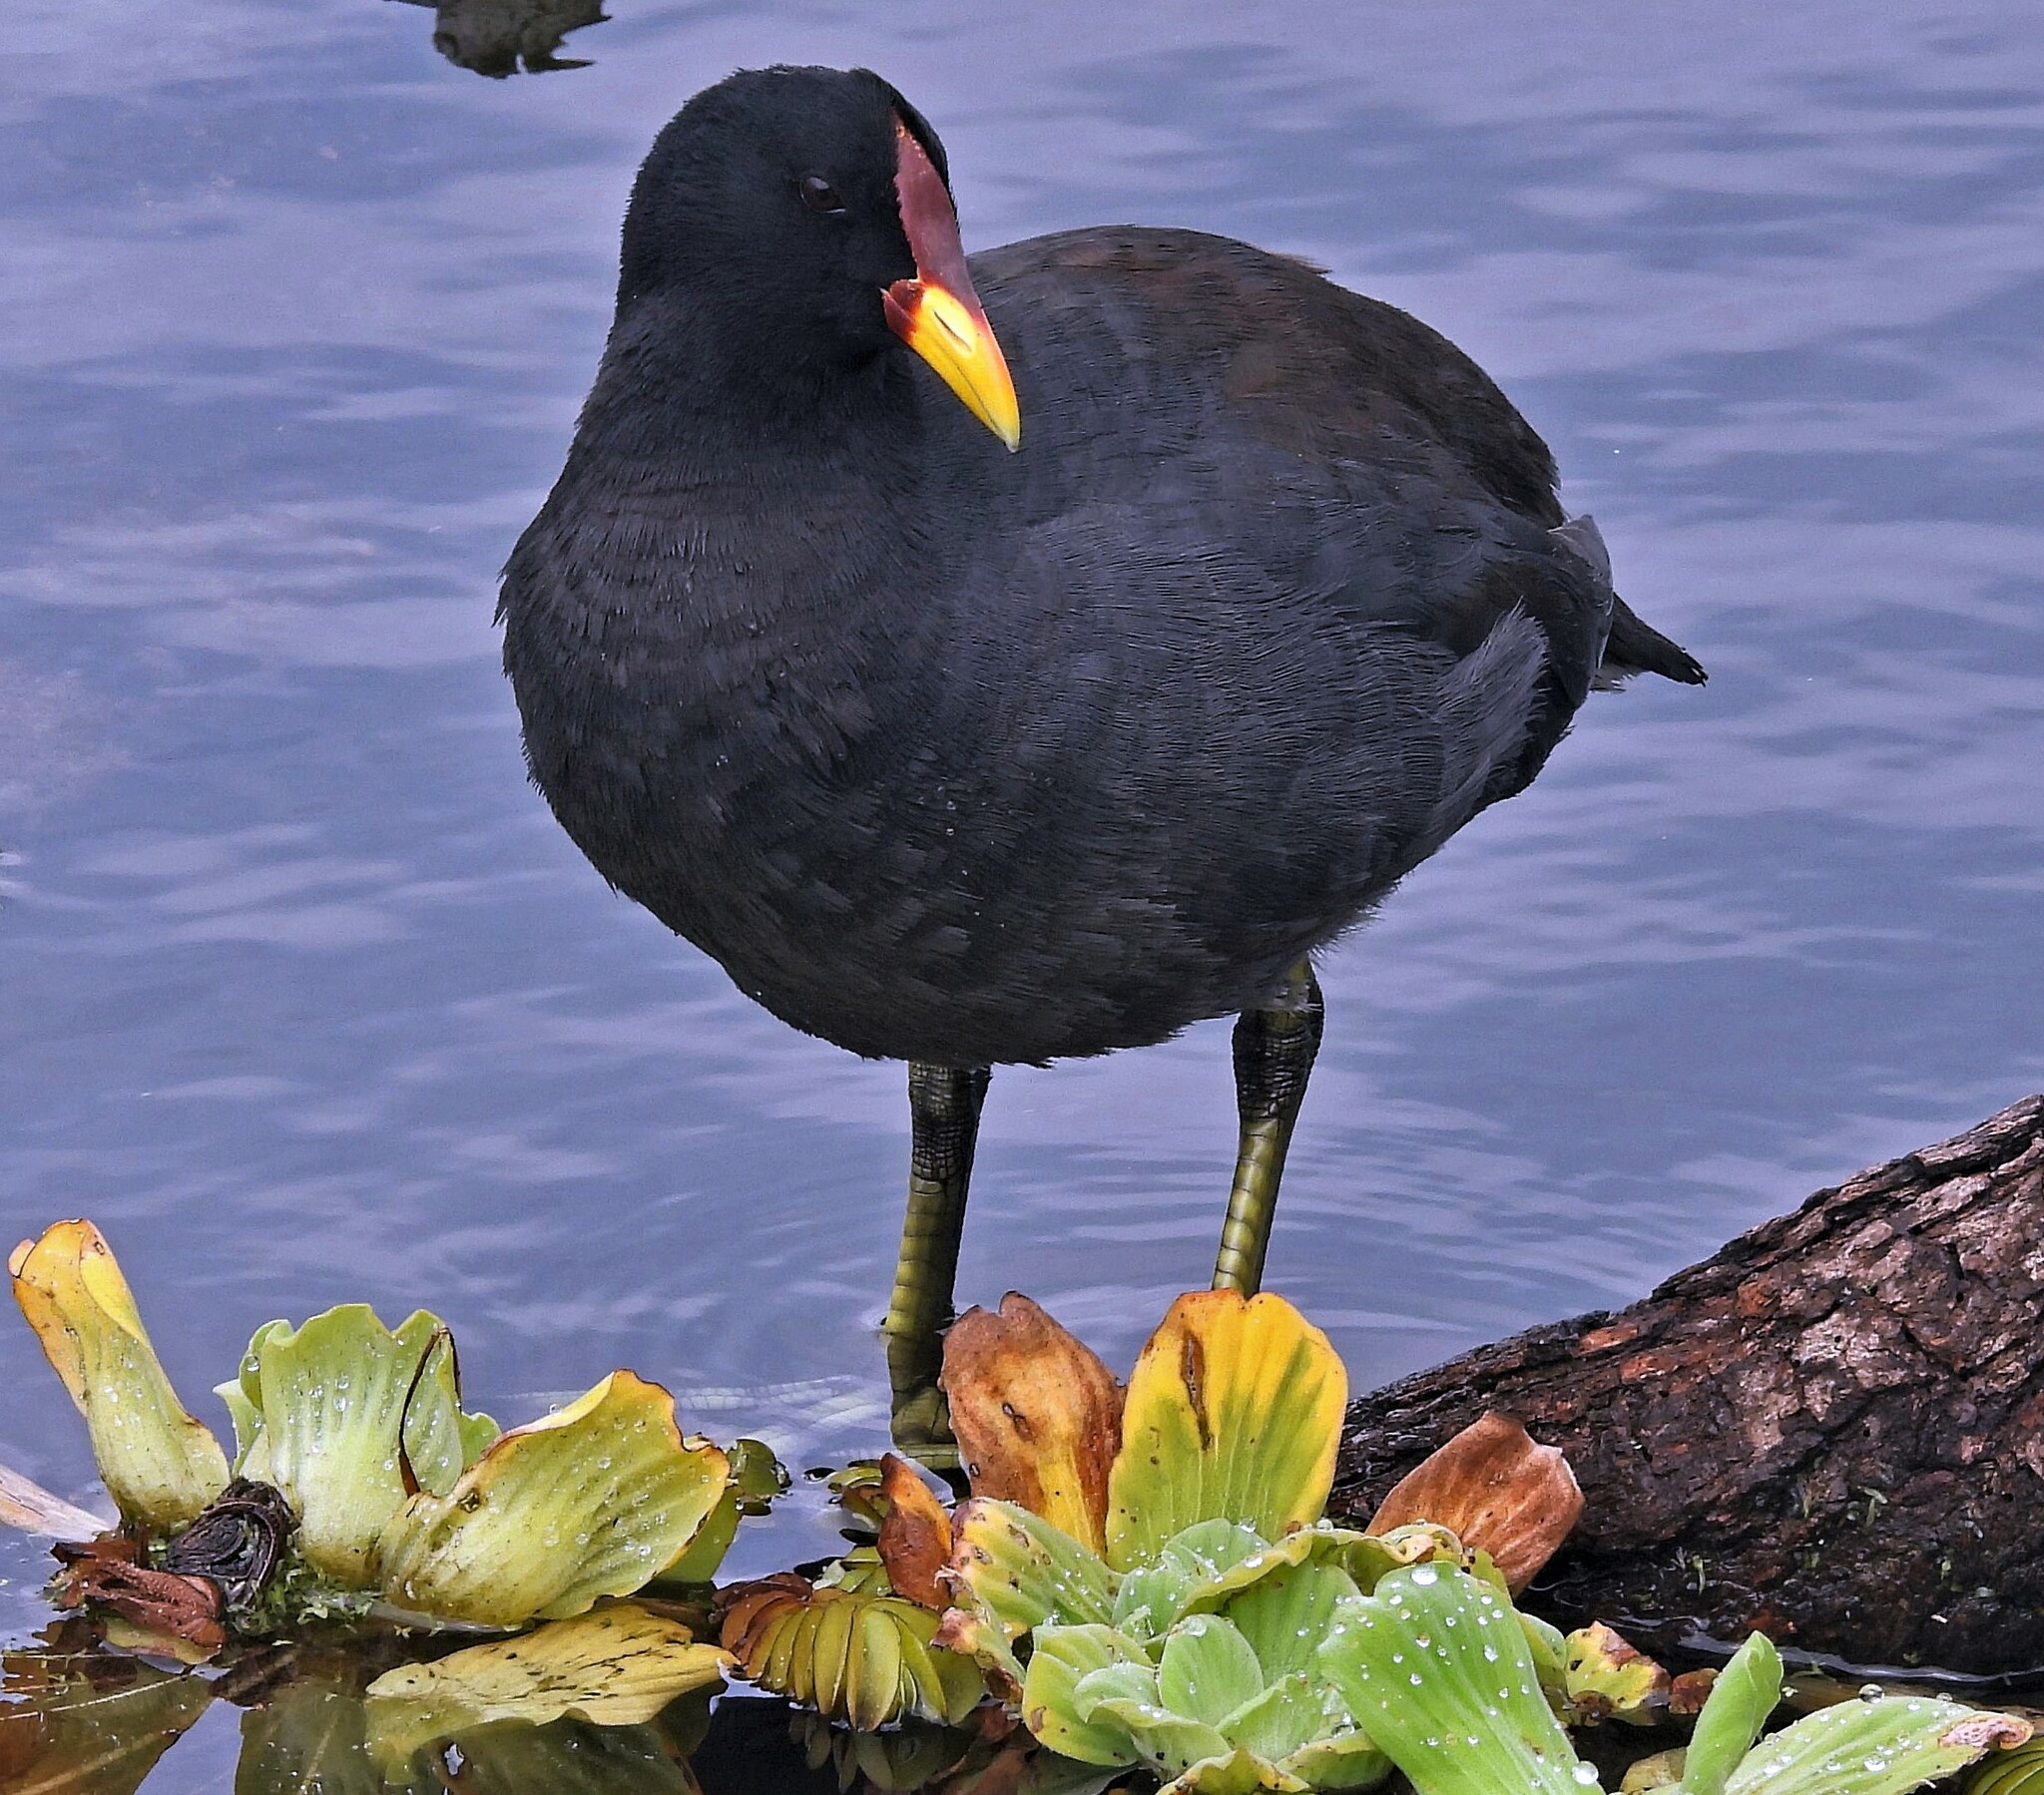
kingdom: Animalia
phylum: Chordata
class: Aves
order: Gruiformes
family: Rallidae
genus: Fulica
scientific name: Fulica rufifrons
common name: Red-fronted coot
